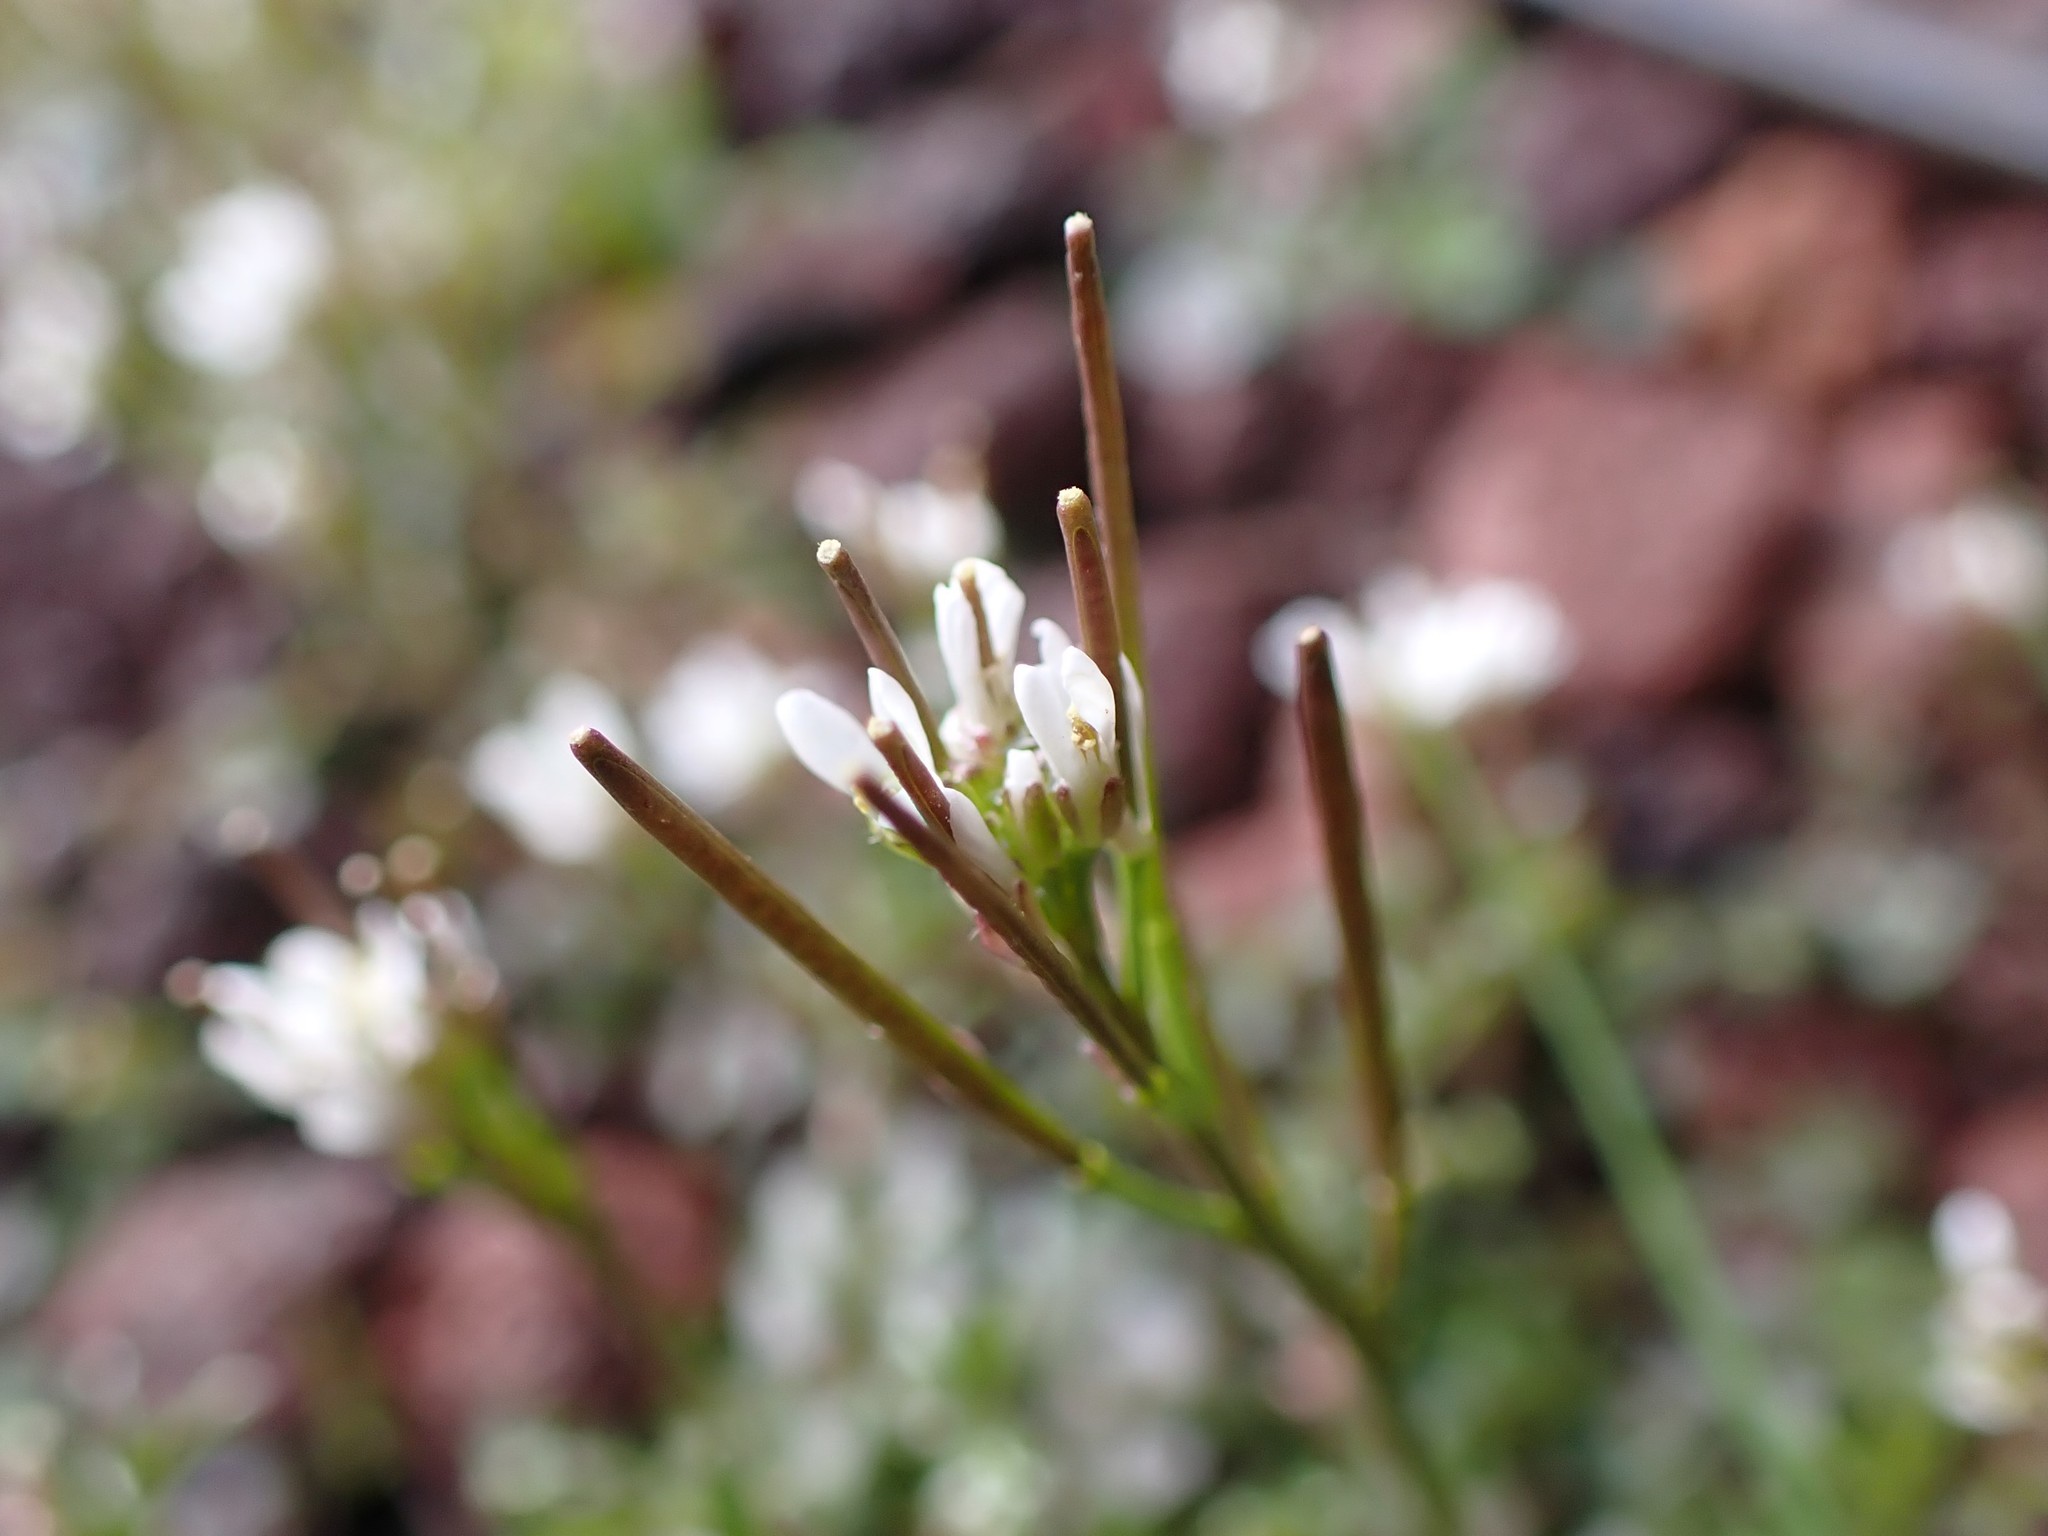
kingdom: Plantae
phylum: Tracheophyta
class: Magnoliopsida
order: Brassicales
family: Brassicaceae
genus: Cardamine
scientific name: Cardamine hirsuta
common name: Hairy bittercress
